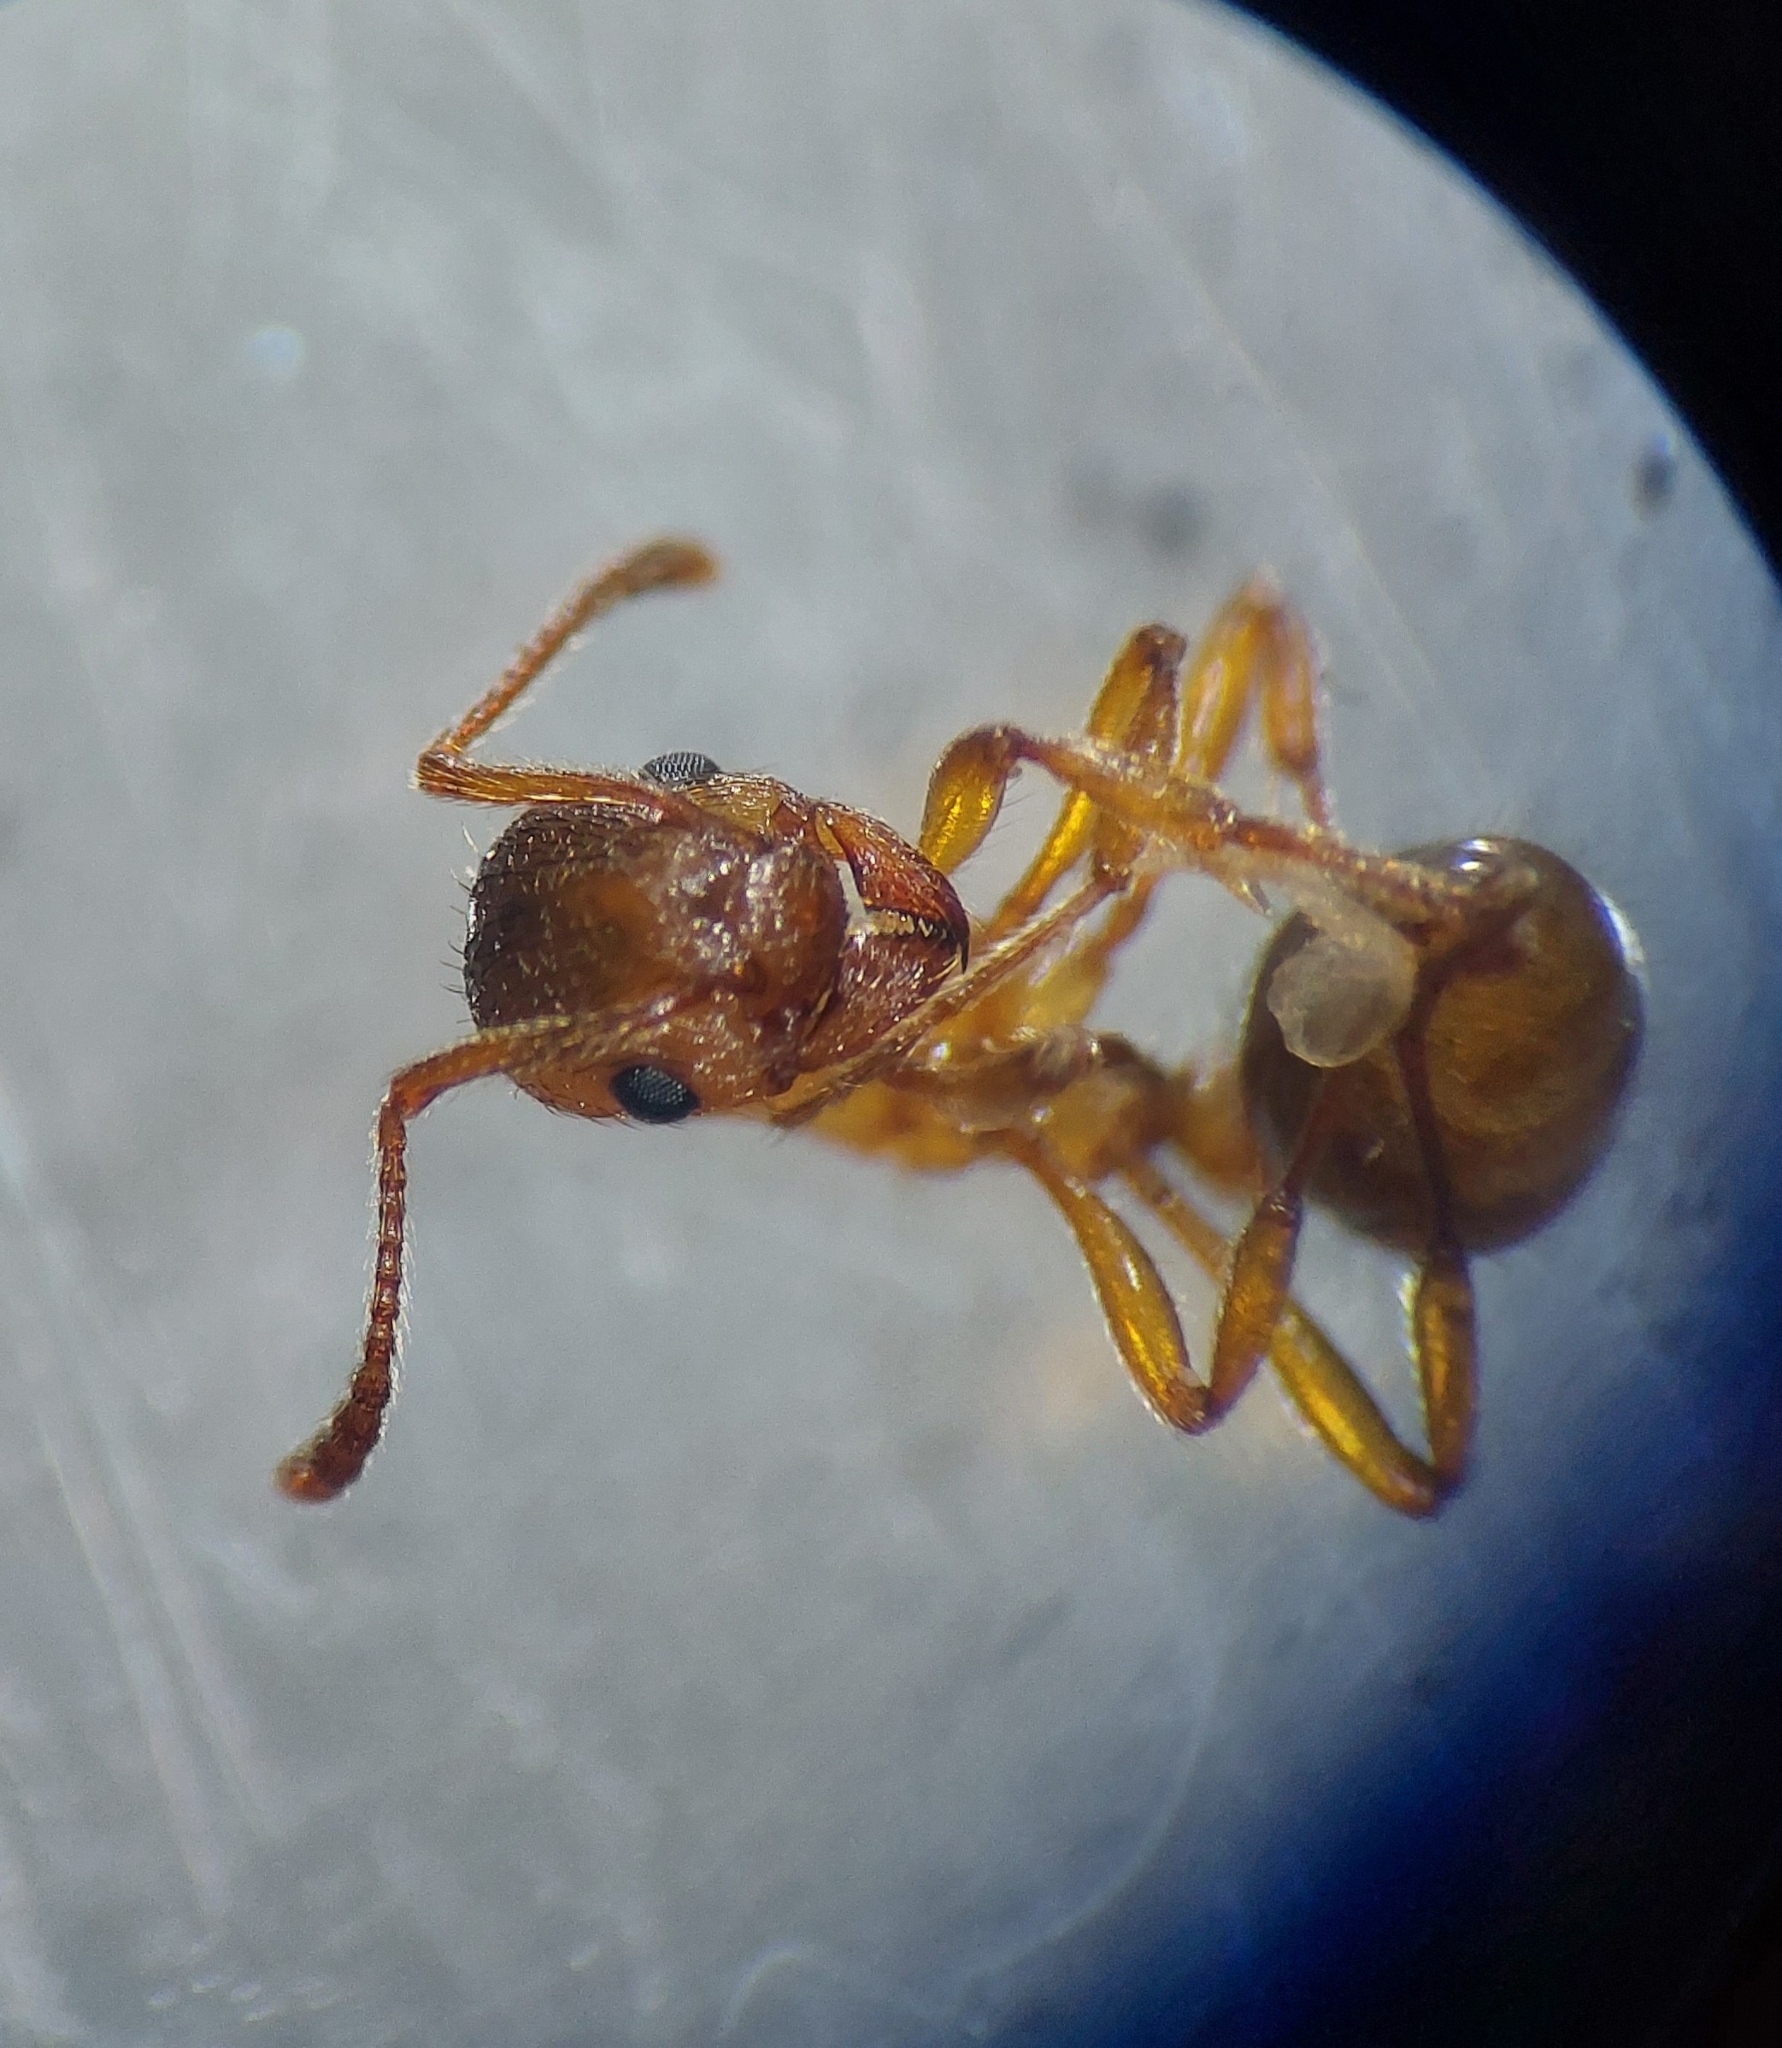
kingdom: Animalia
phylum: Arthropoda
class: Insecta
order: Hymenoptera
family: Formicidae
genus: Myrmica
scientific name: Myrmica rubra
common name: European fire ant
